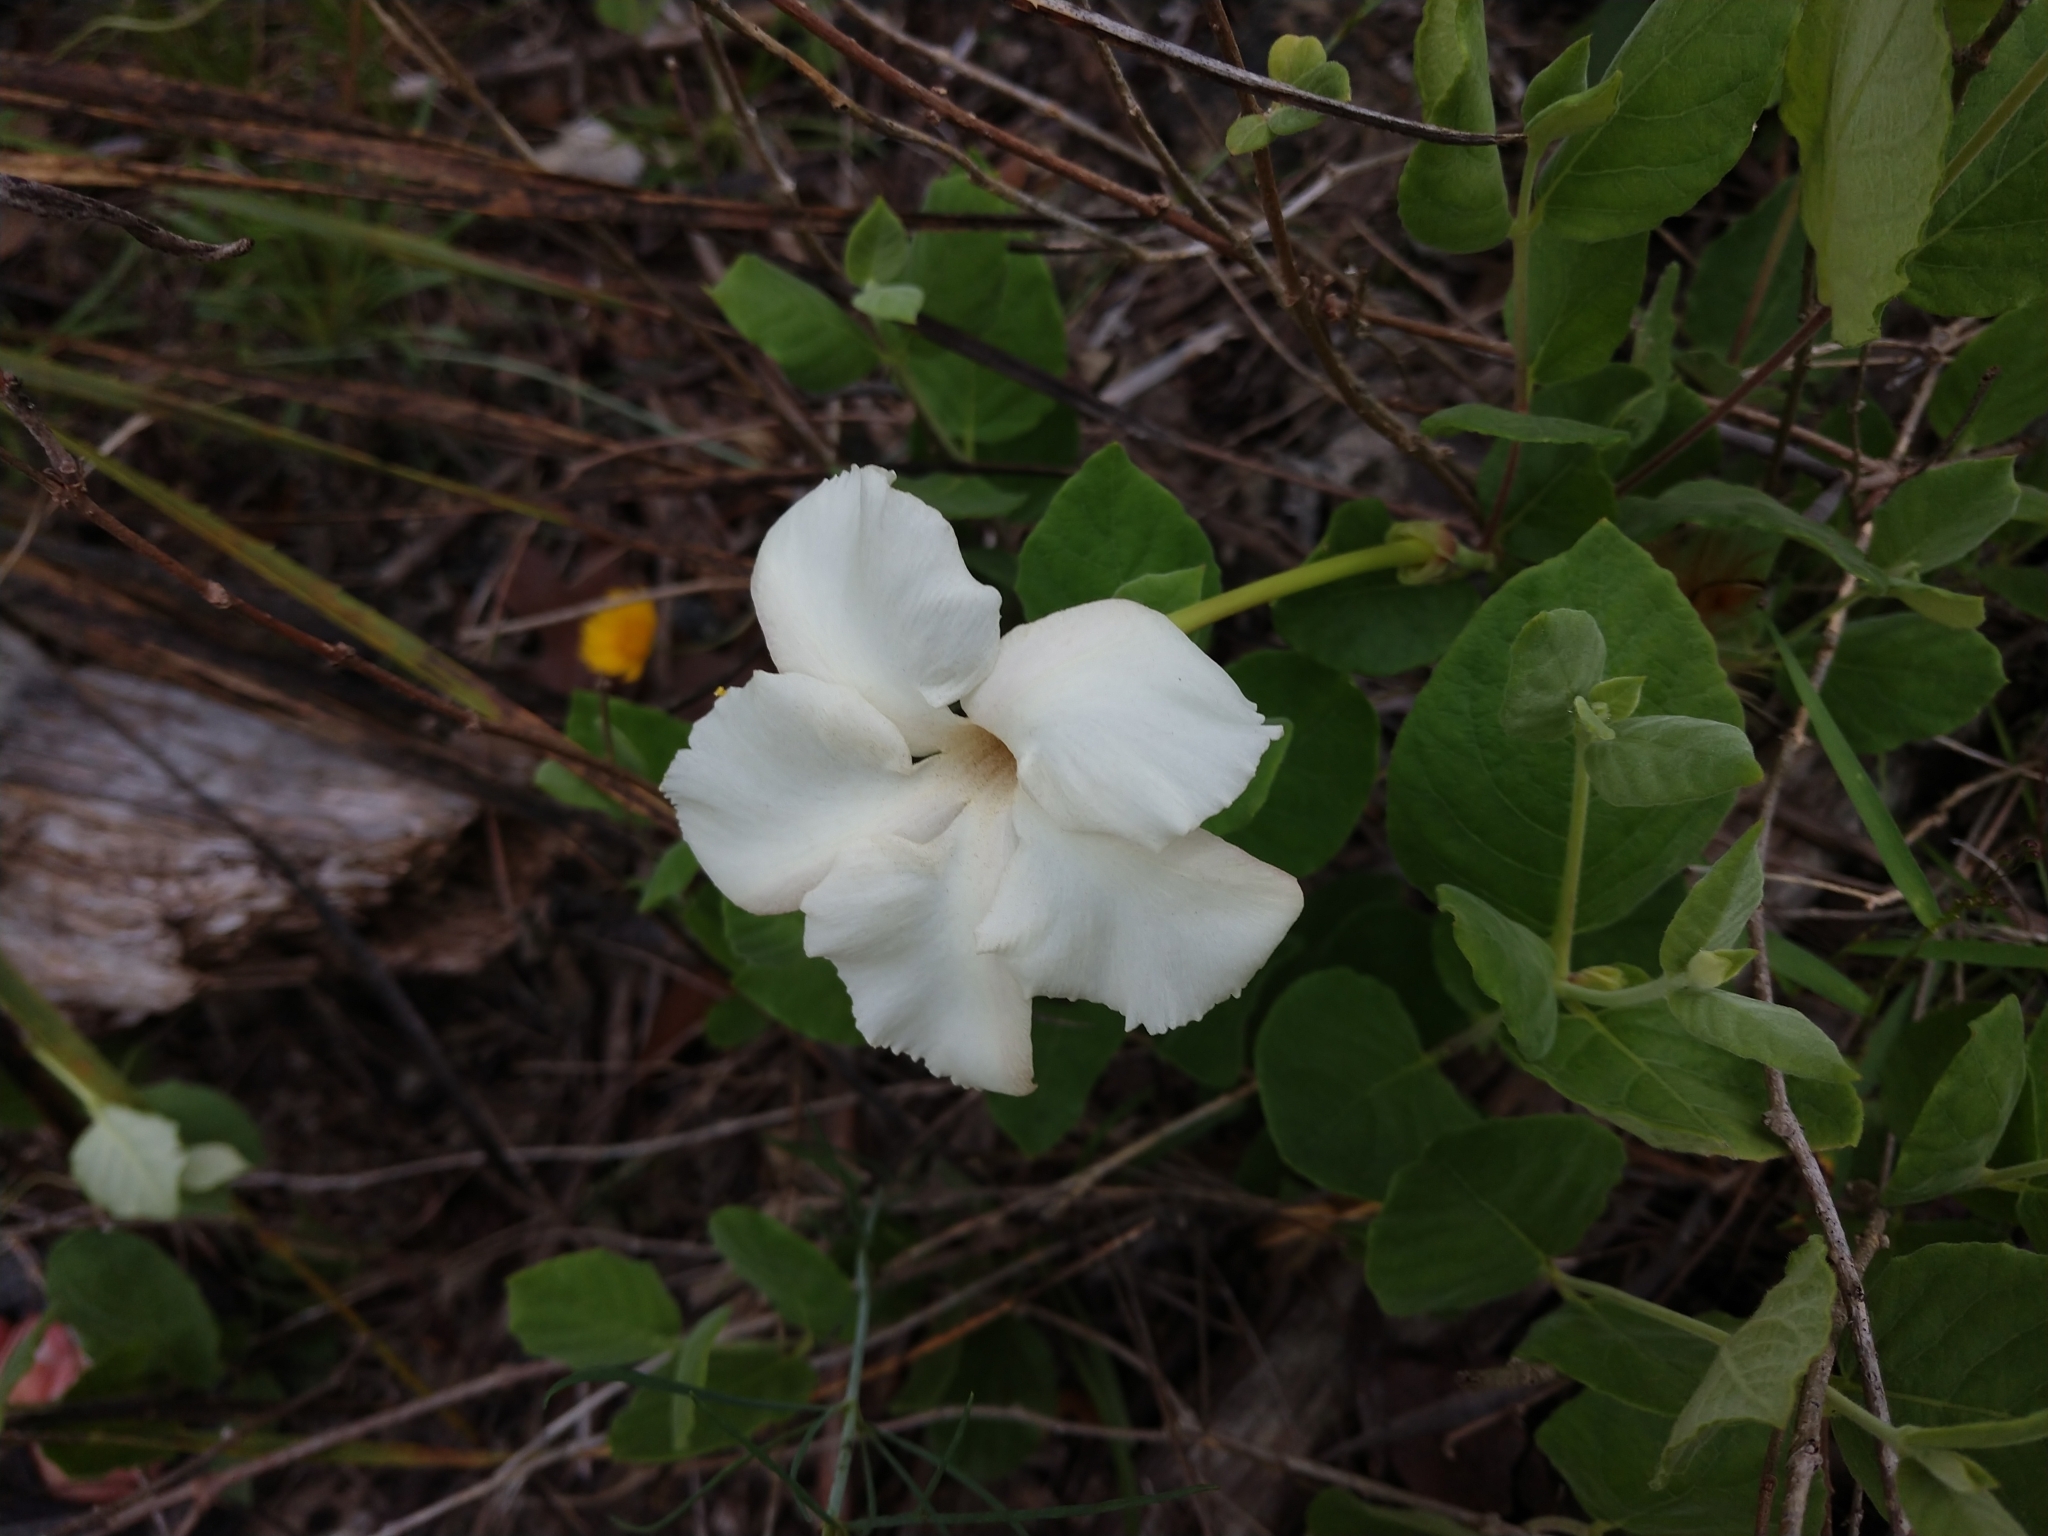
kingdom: Plantae
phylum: Tracheophyta
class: Magnoliopsida
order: Gentianales
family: Apocynaceae
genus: Mandevilla
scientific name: Mandevilla macrosiphon
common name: Plateau rocktrumpet
